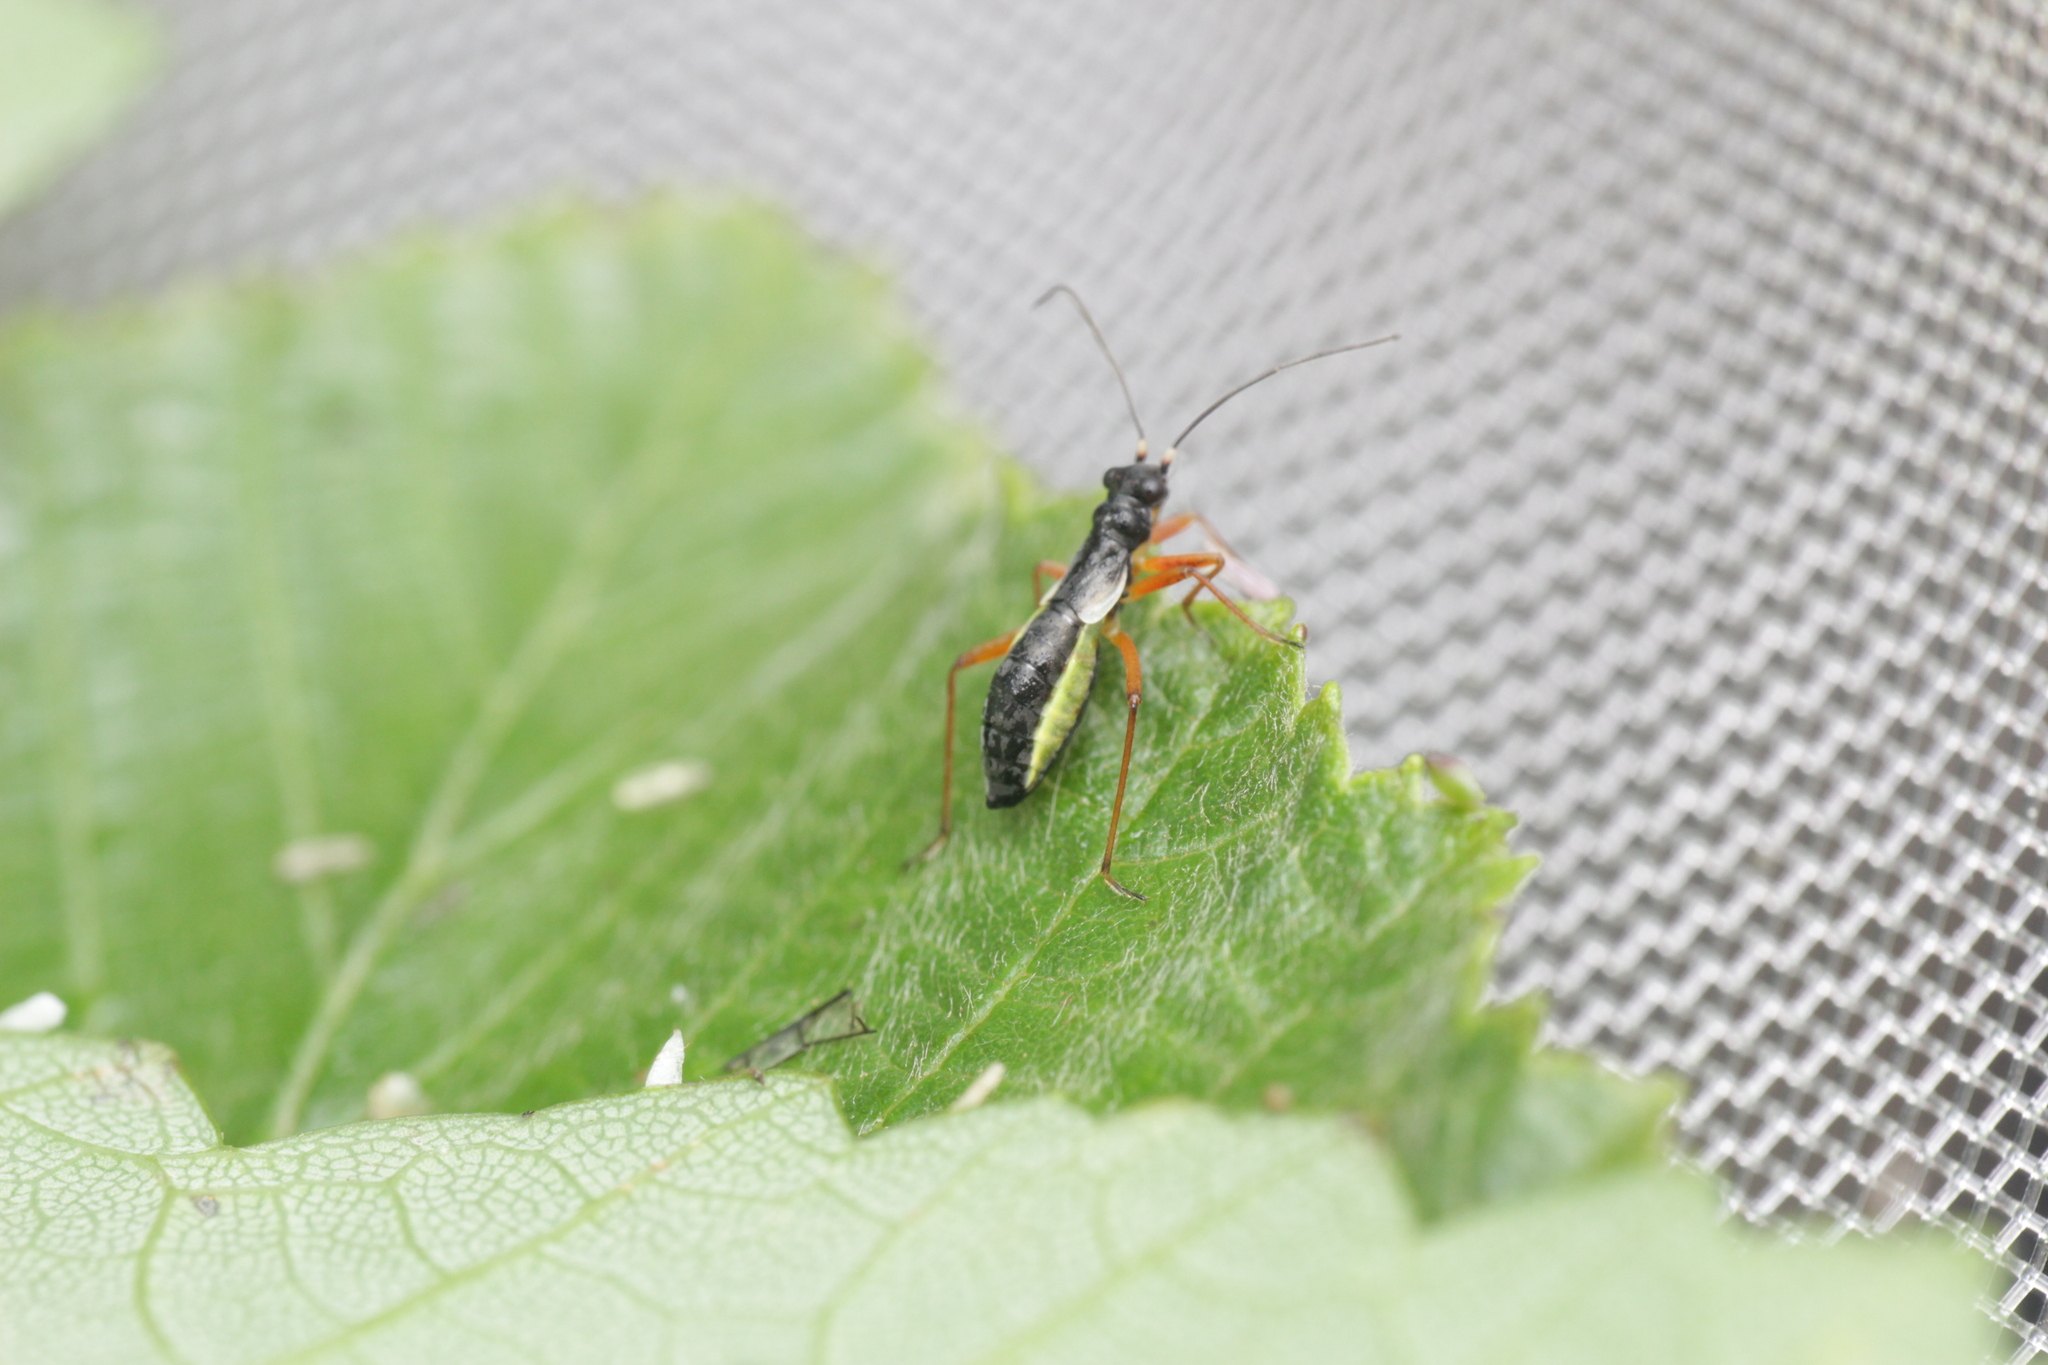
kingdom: Animalia
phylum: Arthropoda
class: Insecta
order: Hemiptera
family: Miridae
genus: Pithanus
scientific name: Pithanus maerkelii
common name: Plant bug
